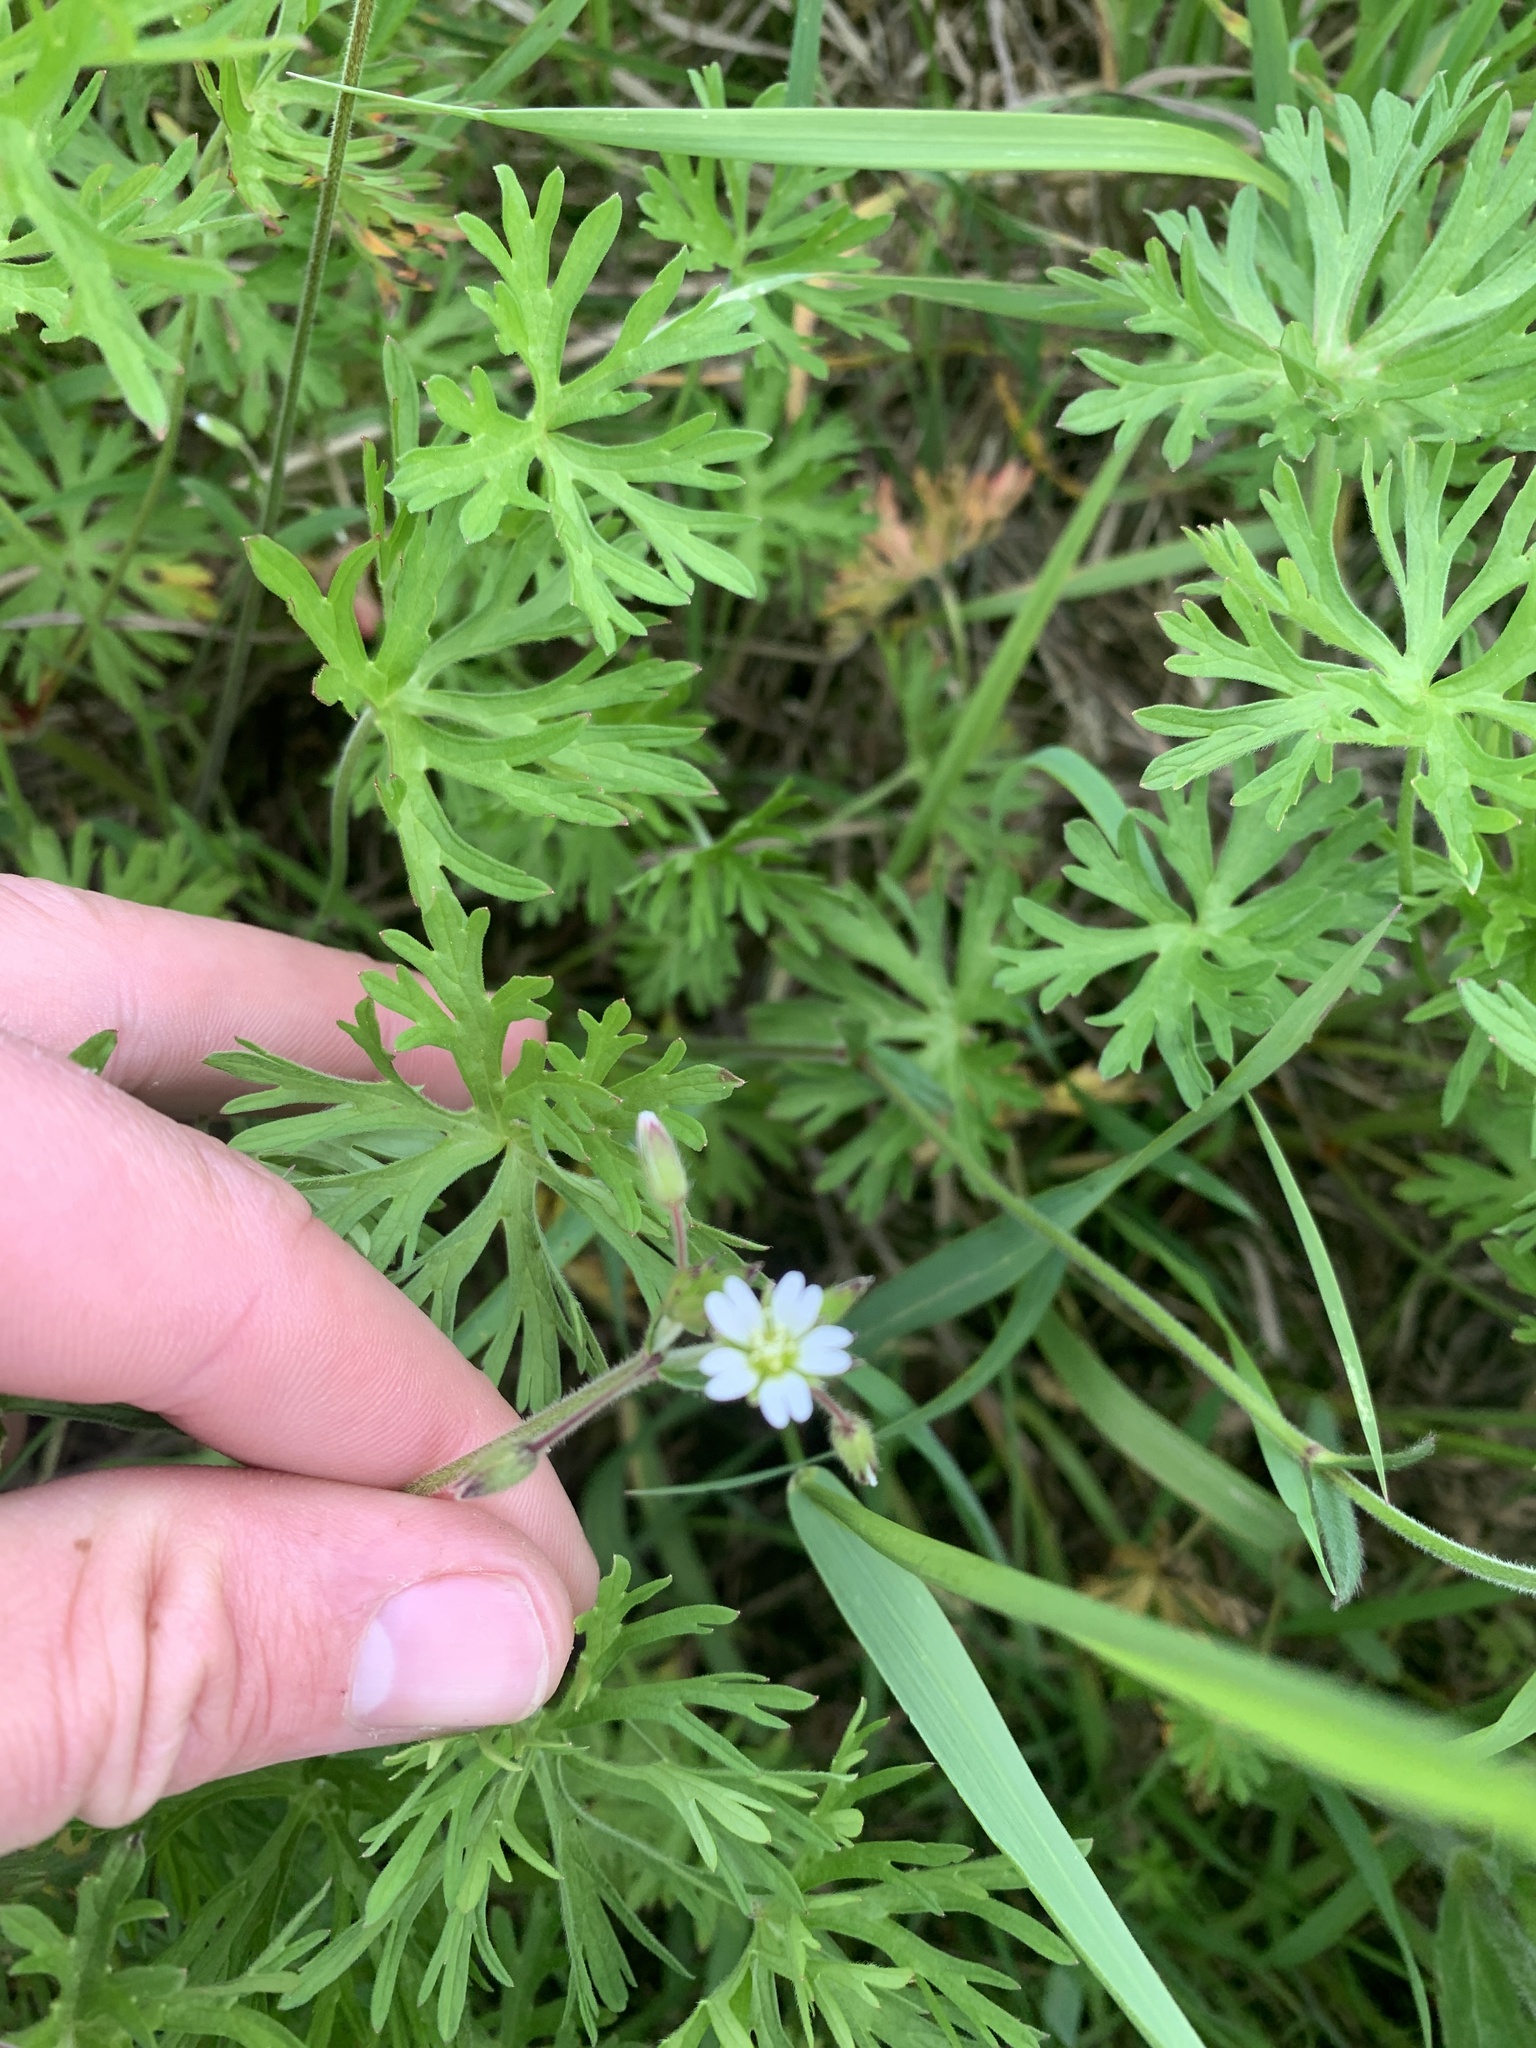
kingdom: Plantae
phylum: Tracheophyta
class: Magnoliopsida
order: Caryophyllales
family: Caryophyllaceae
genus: Cerastium
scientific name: Cerastium fontanum
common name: Common mouse-ear
